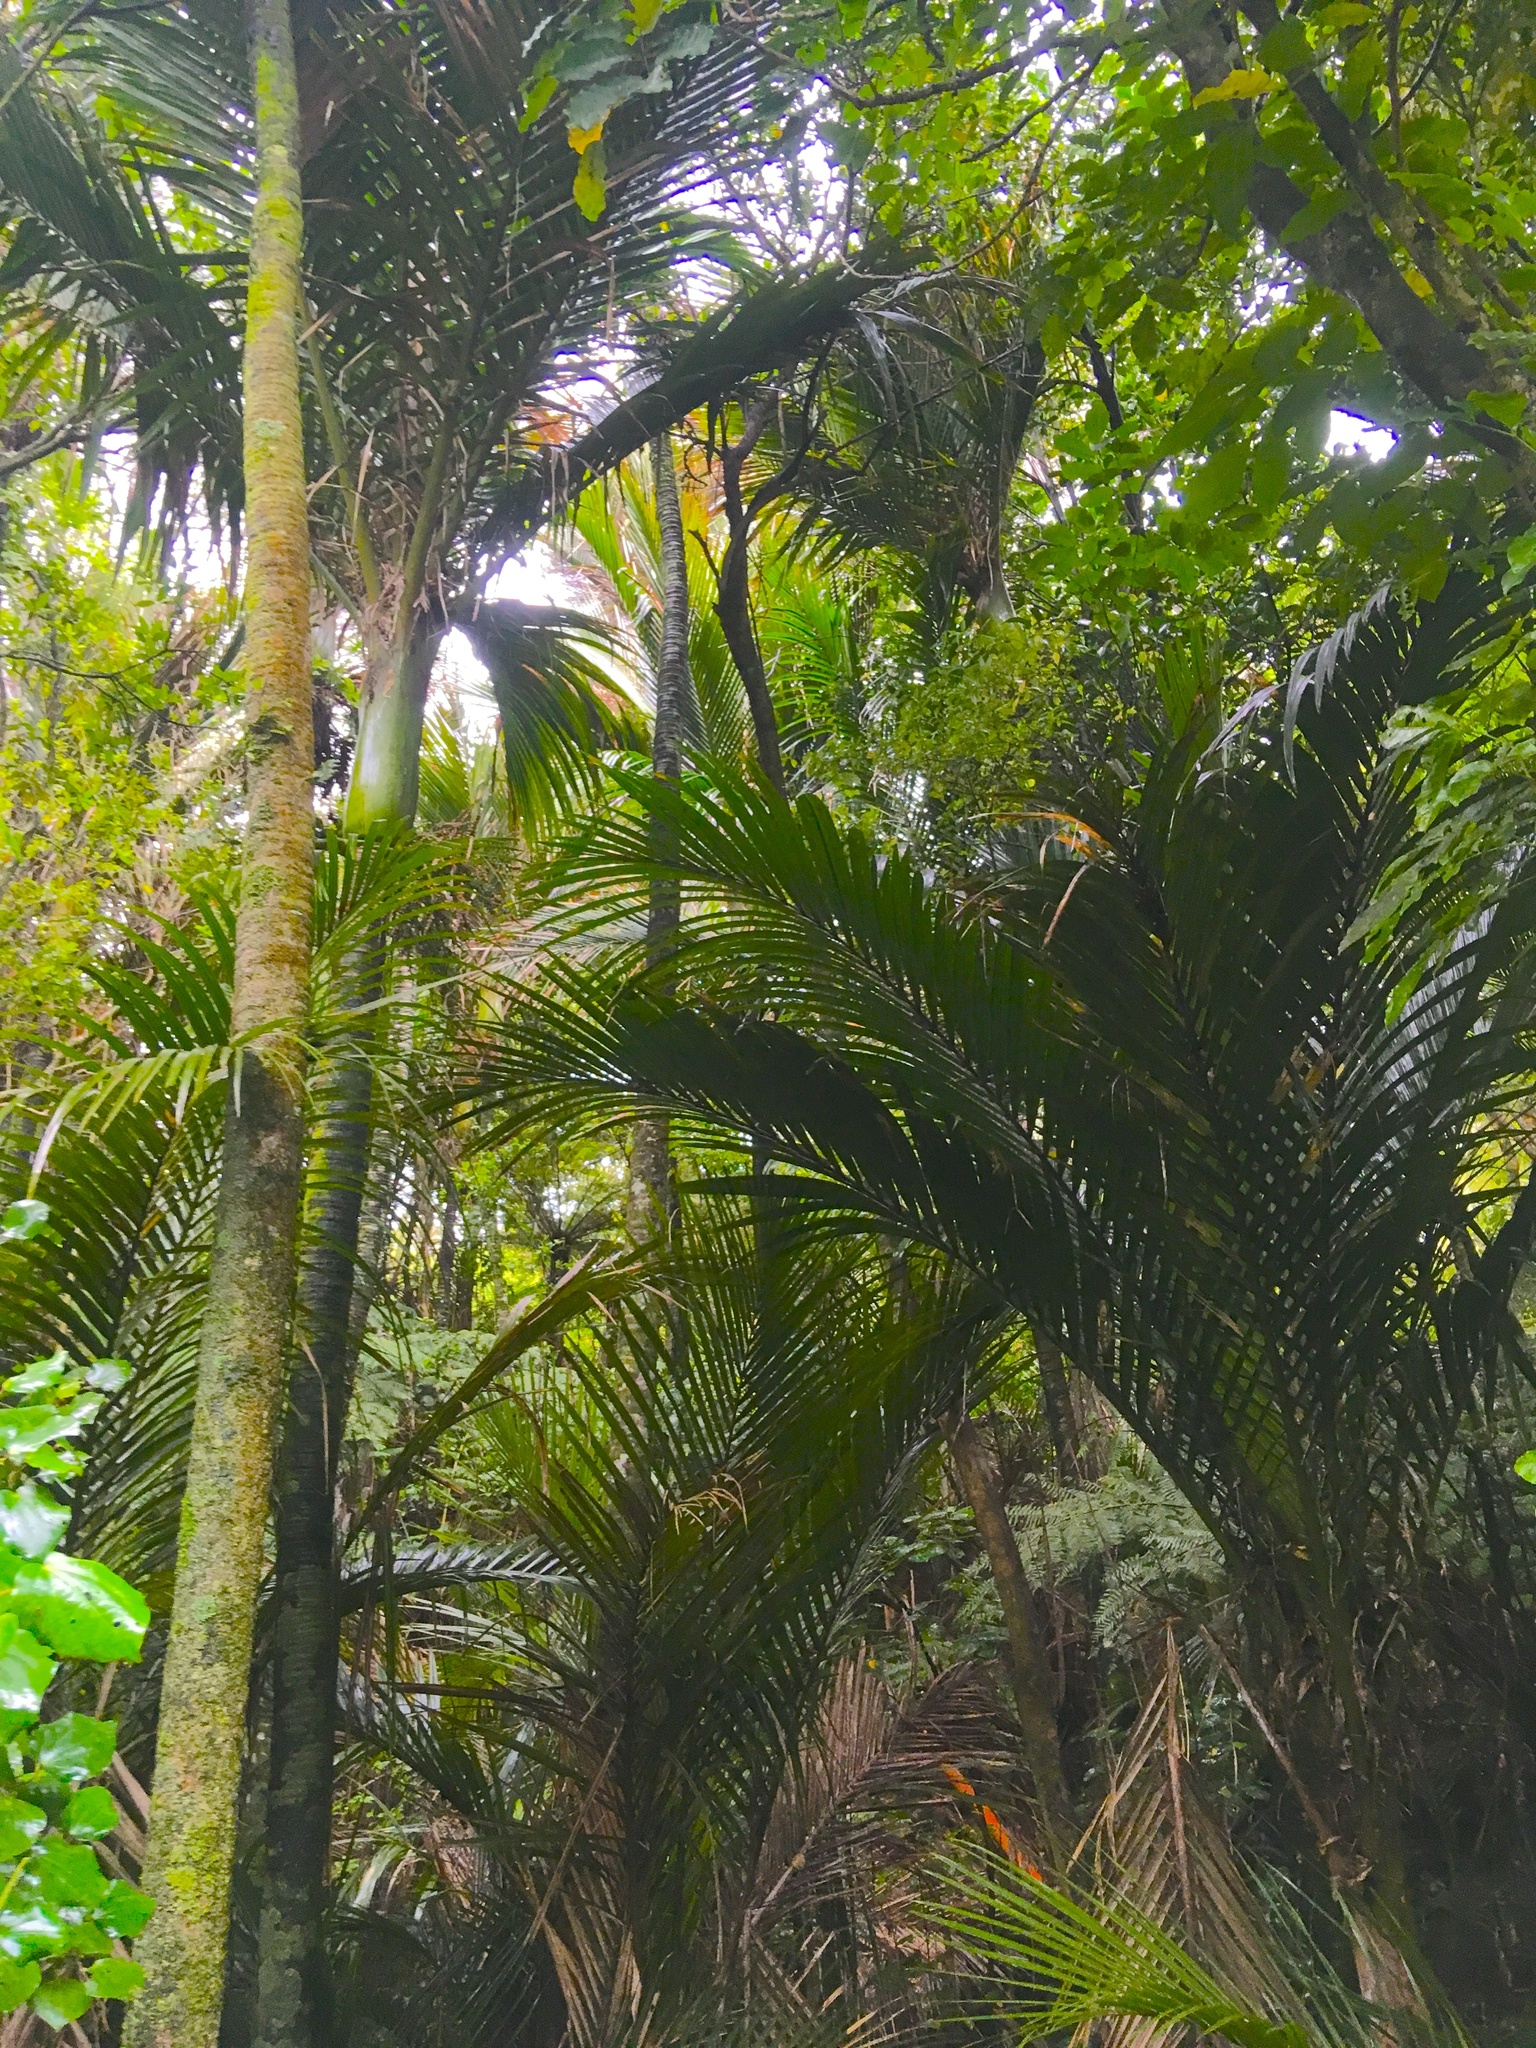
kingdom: Plantae
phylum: Tracheophyta
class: Liliopsida
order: Arecales
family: Arecaceae
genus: Rhopalostylis
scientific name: Rhopalostylis sapida
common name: Feather-duster palm
